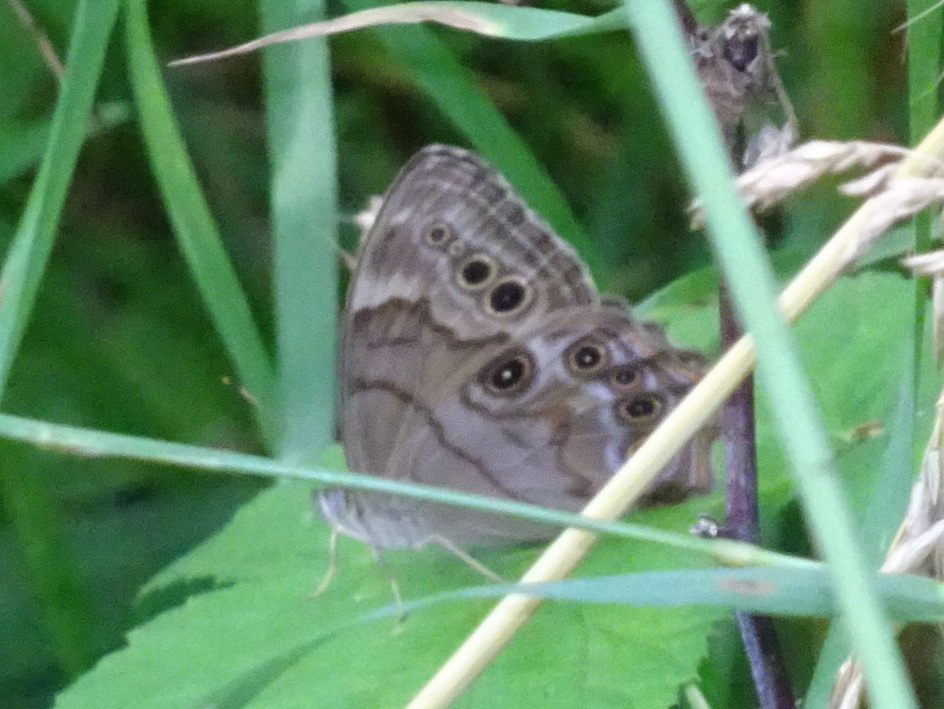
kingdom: Animalia
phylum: Arthropoda
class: Insecta
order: Lepidoptera
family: Nymphalidae
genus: Lethe
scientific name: Lethe anthedon
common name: Northern pearly-eye
